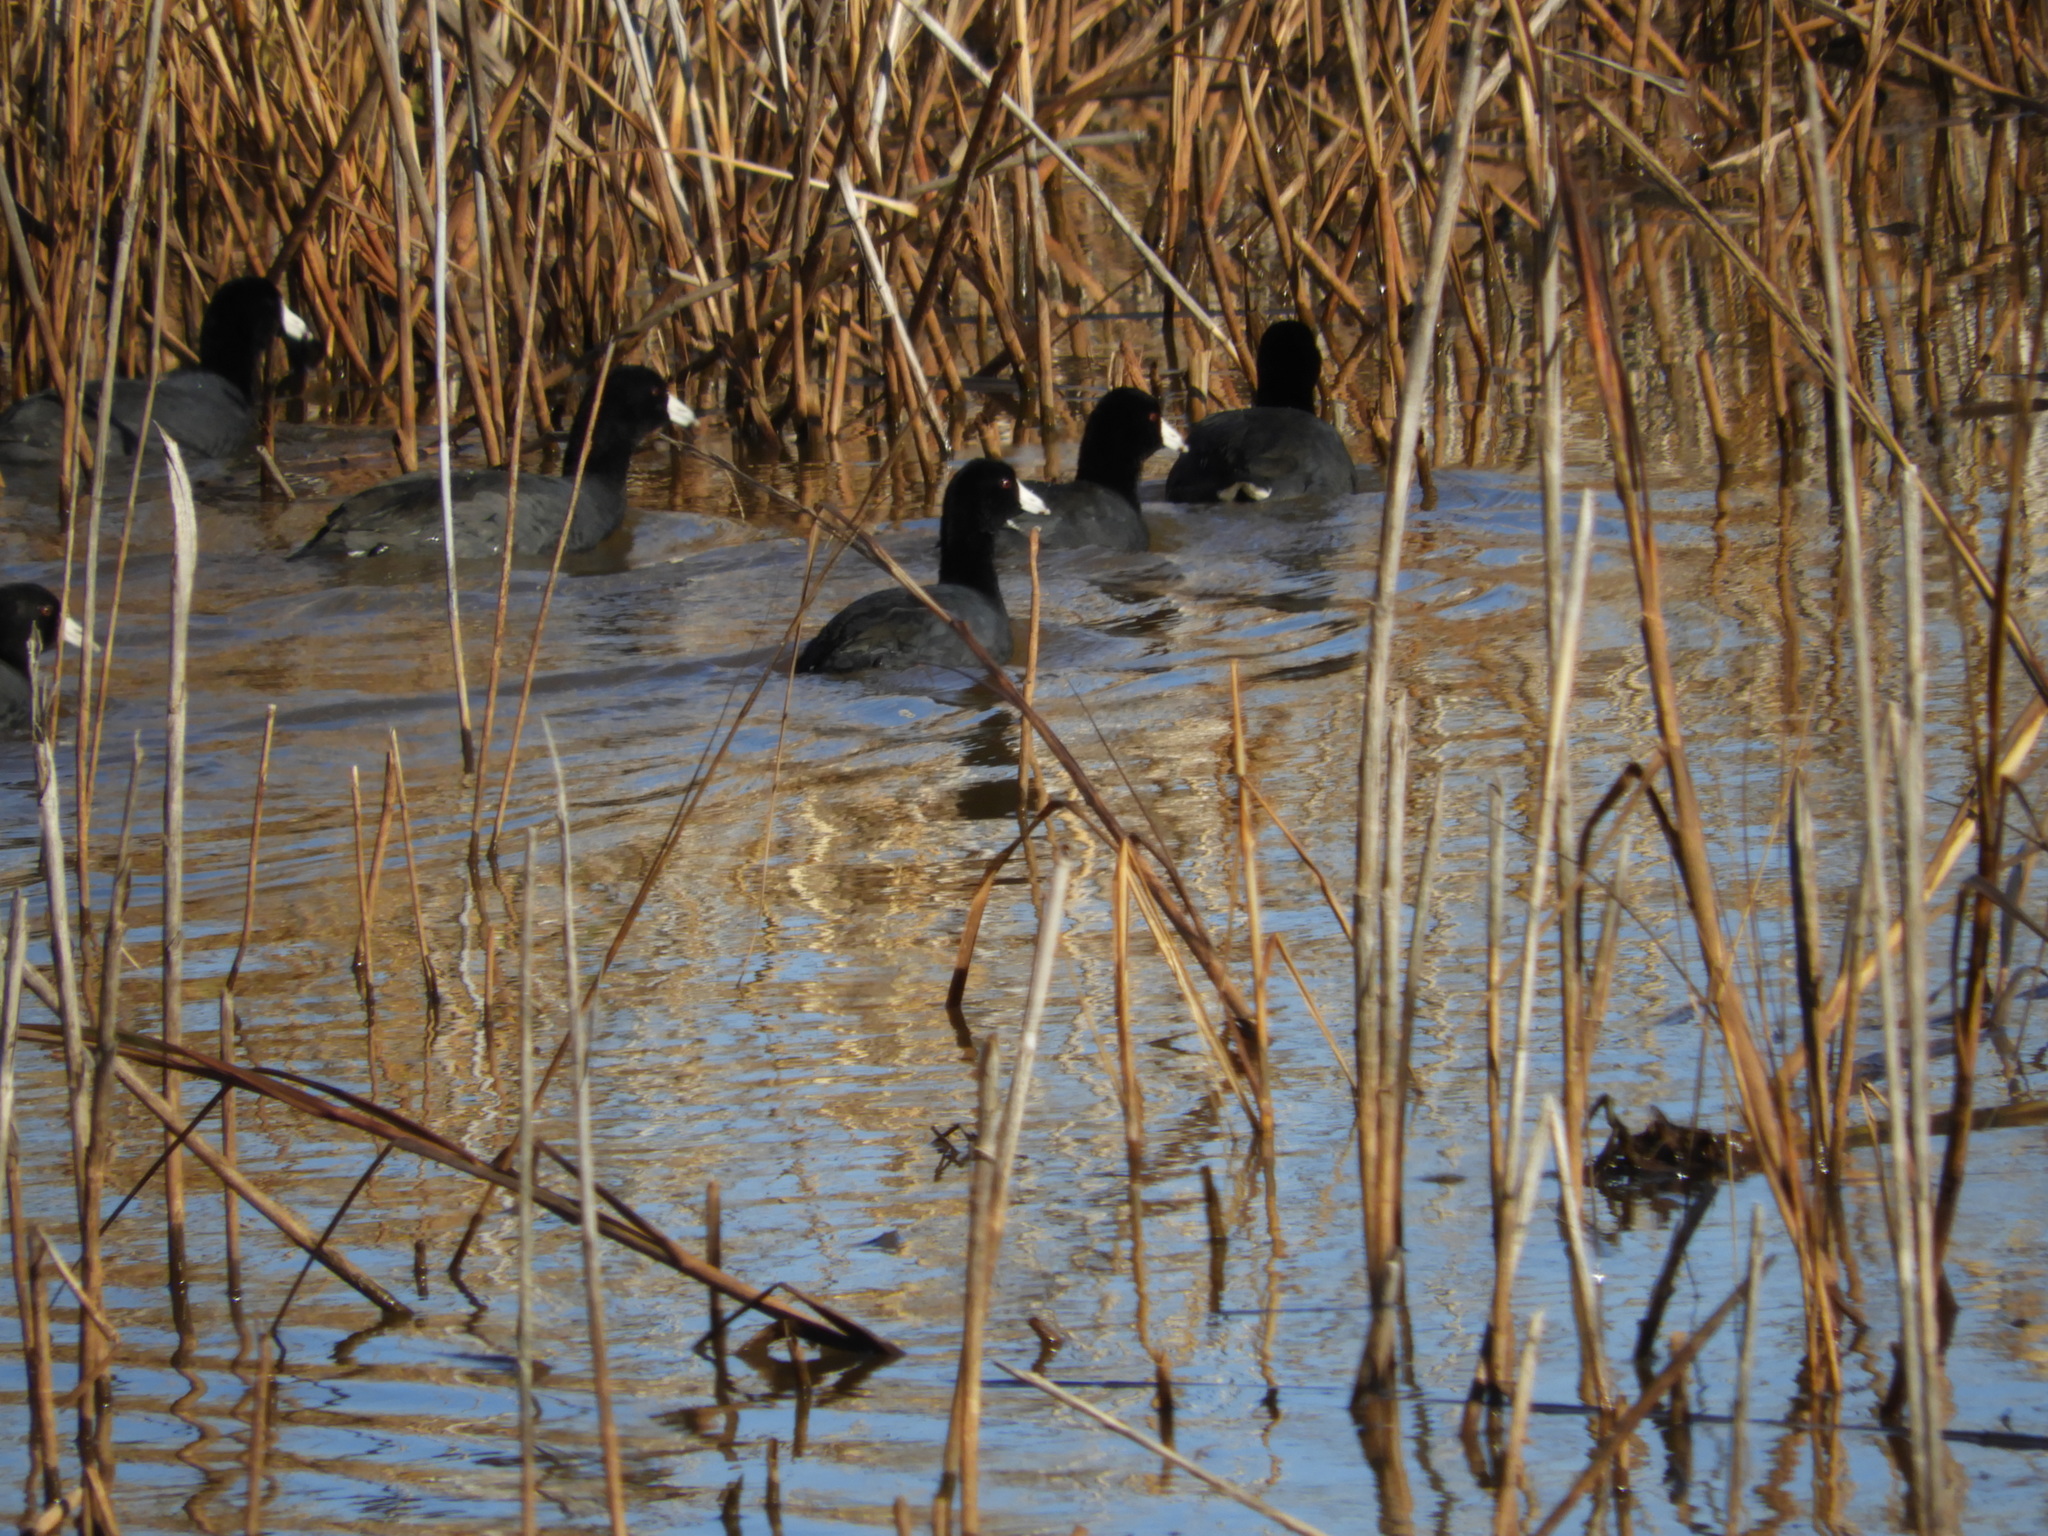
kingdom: Animalia
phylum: Chordata
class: Aves
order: Gruiformes
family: Rallidae
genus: Fulica
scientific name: Fulica americana
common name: American coot
